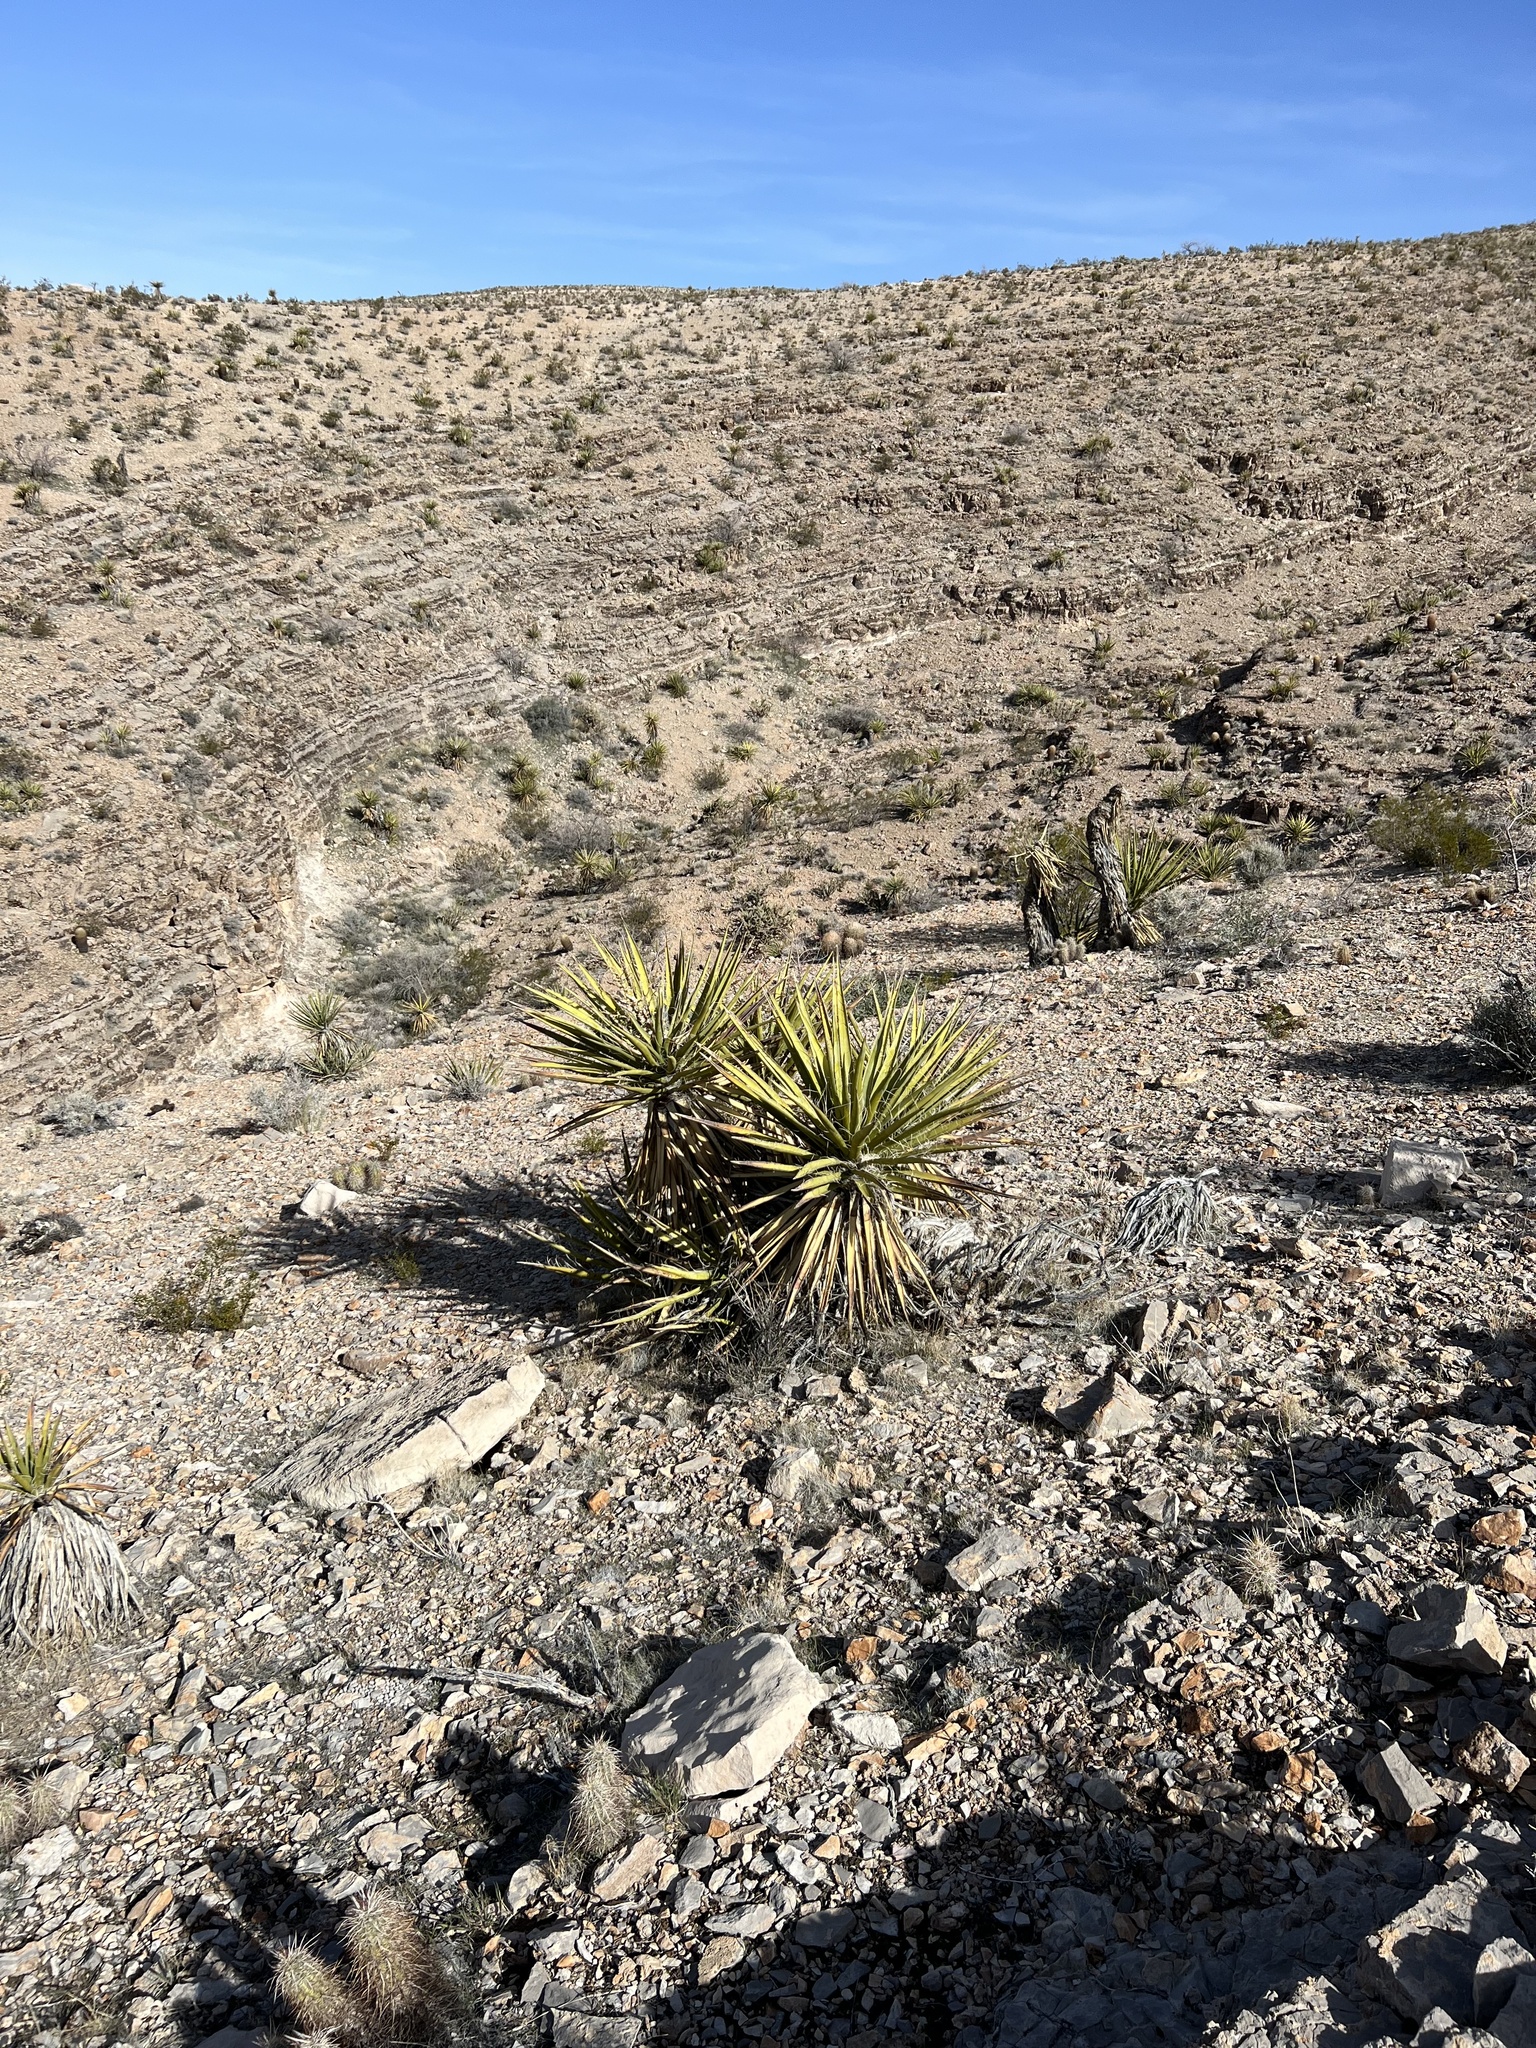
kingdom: Plantae
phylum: Tracheophyta
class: Liliopsida
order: Asparagales
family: Asparagaceae
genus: Yucca
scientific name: Yucca schidigera
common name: Mojave yucca
